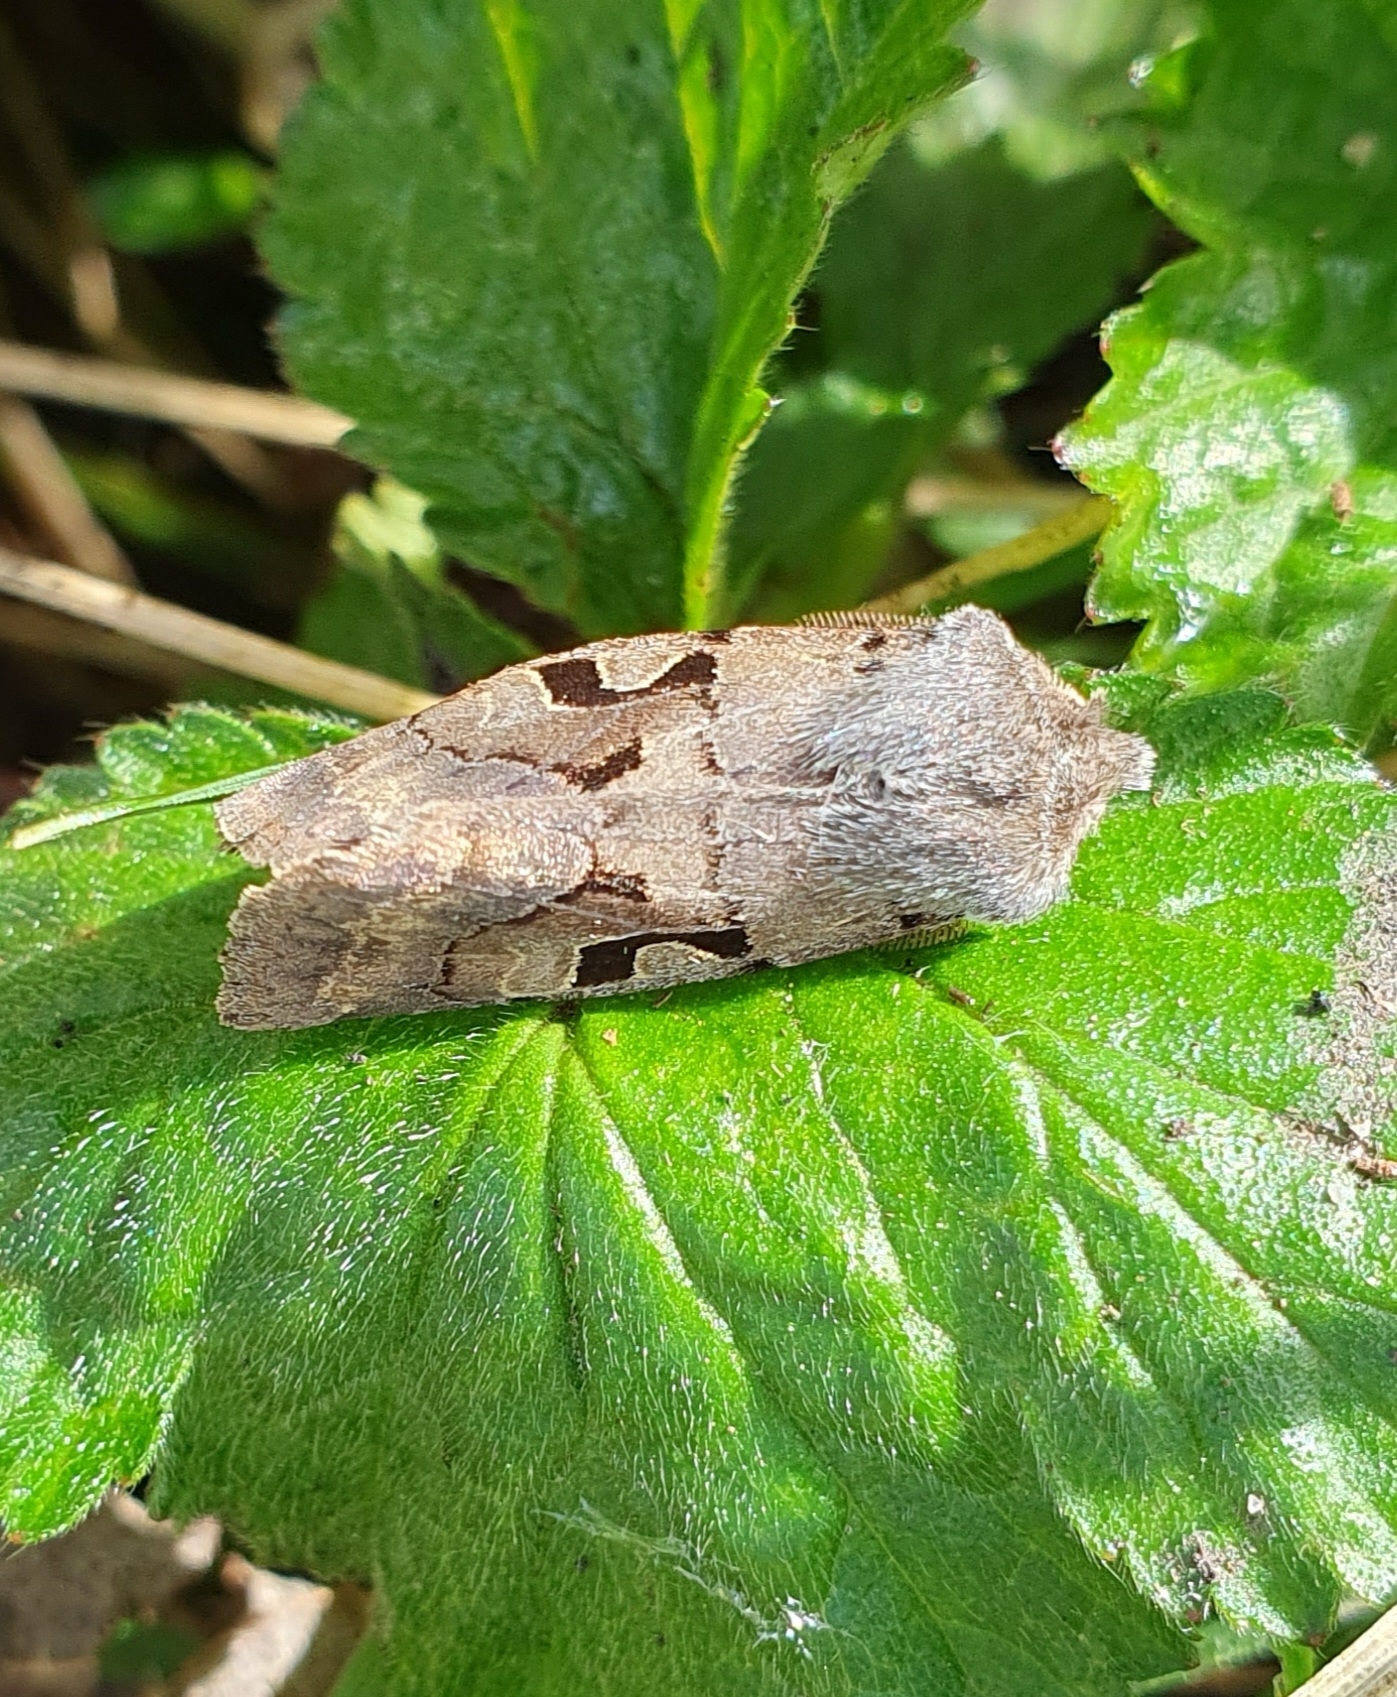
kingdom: Animalia
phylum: Arthropoda
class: Insecta
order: Lepidoptera
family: Noctuidae
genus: Orthosia
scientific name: Orthosia gothica
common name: Hebrew character
